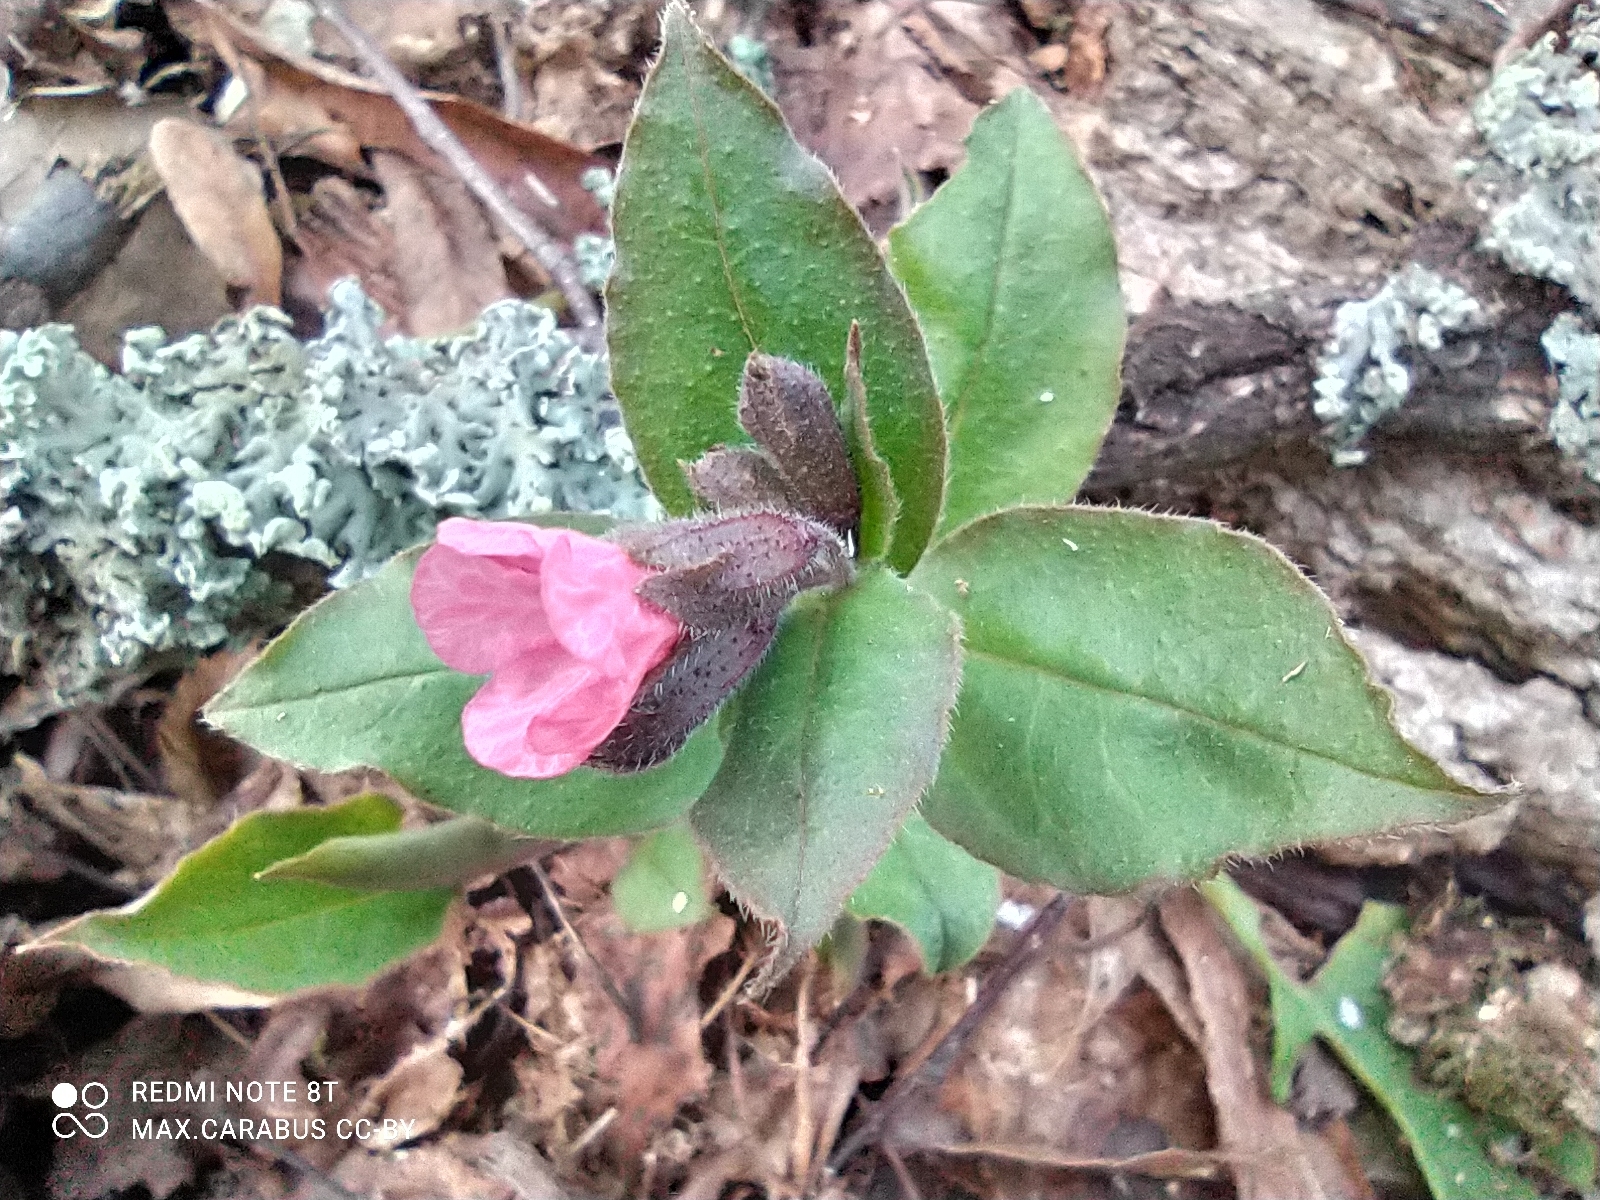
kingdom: Plantae
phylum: Tracheophyta
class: Magnoliopsida
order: Boraginales
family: Boraginaceae
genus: Pulmonaria
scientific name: Pulmonaria obscura
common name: Suffolk lungwort
